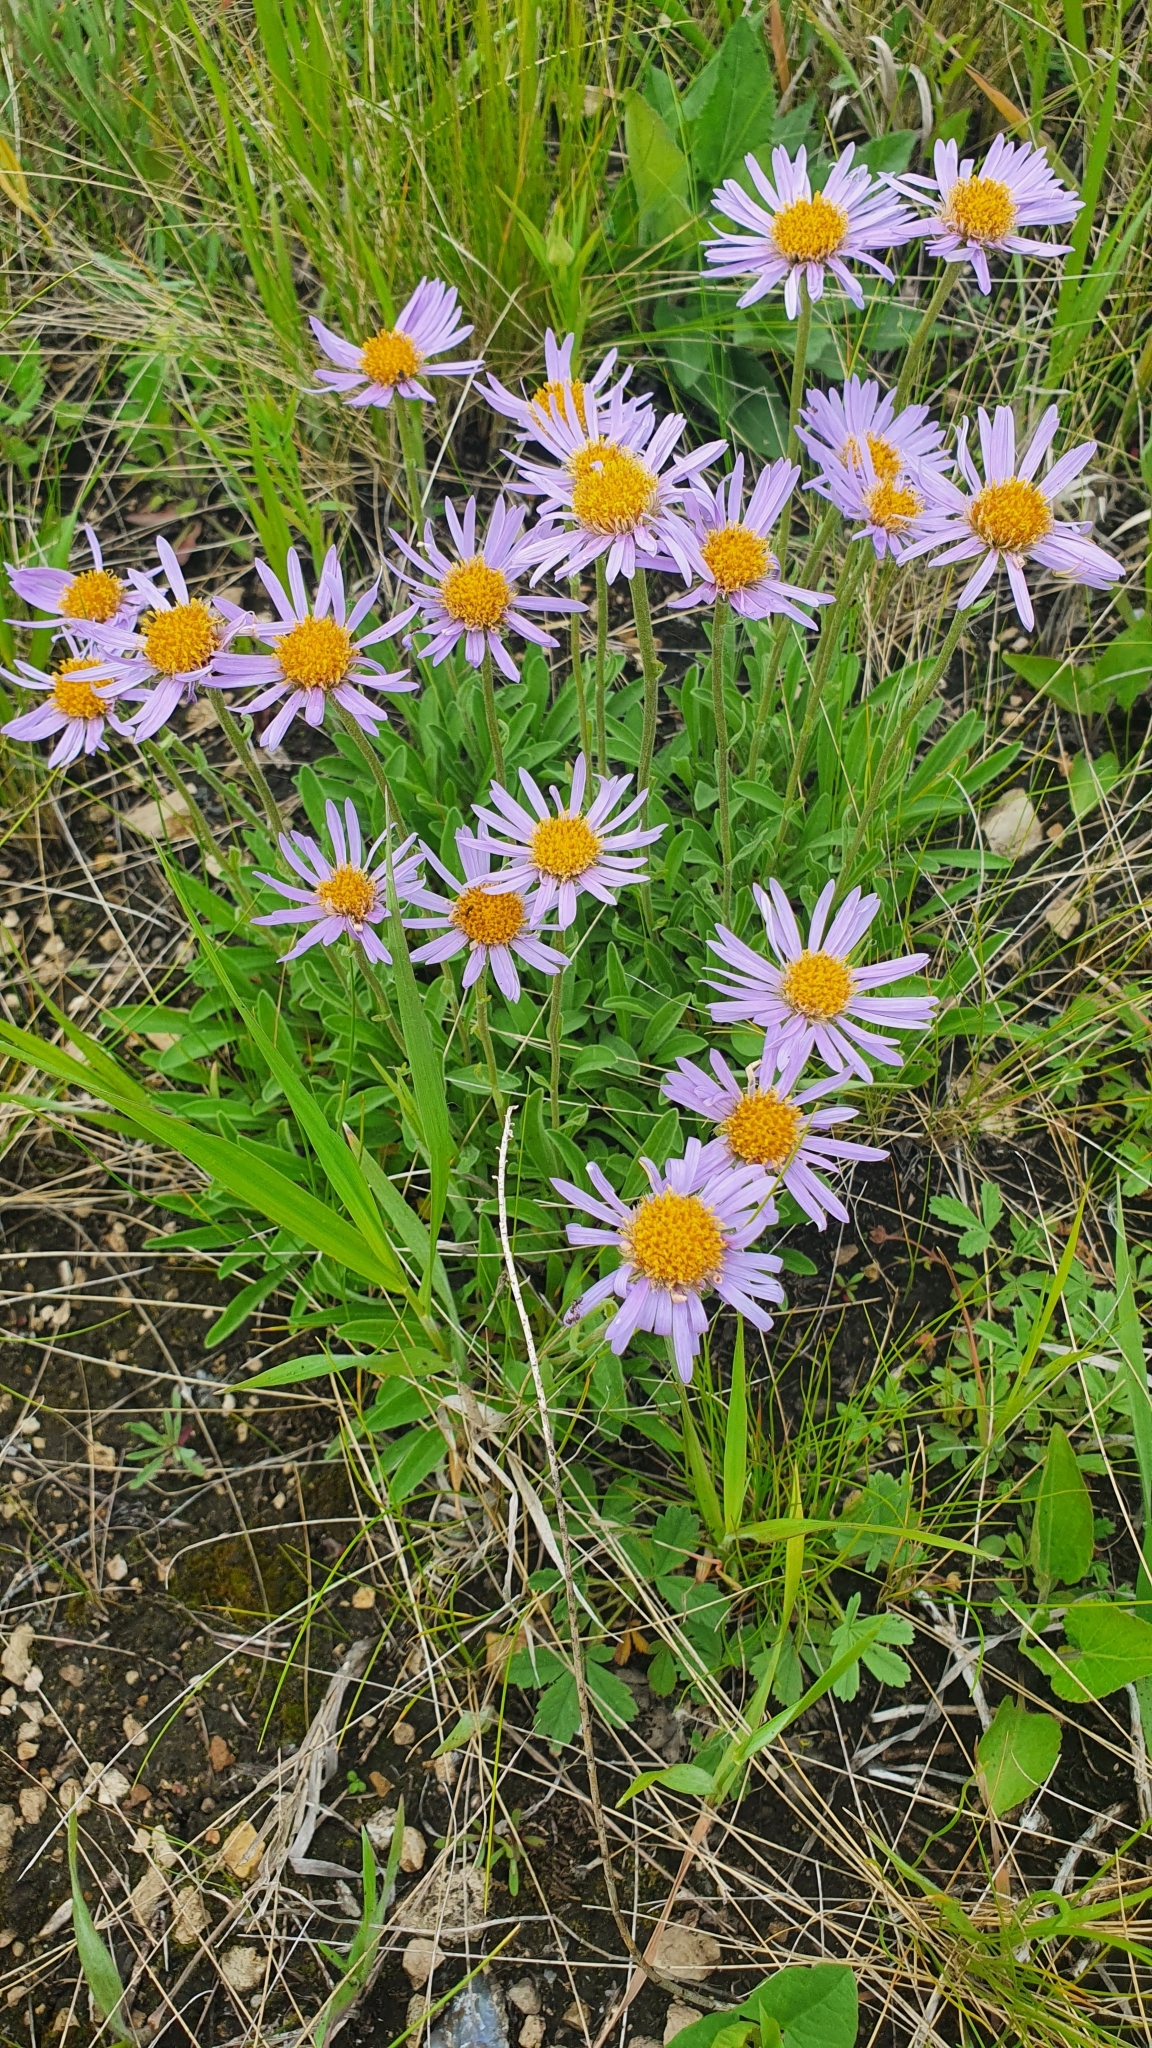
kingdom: Plantae
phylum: Tracheophyta
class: Magnoliopsida
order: Asterales
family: Asteraceae
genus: Aster
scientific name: Aster alpinus
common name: Alpine aster
